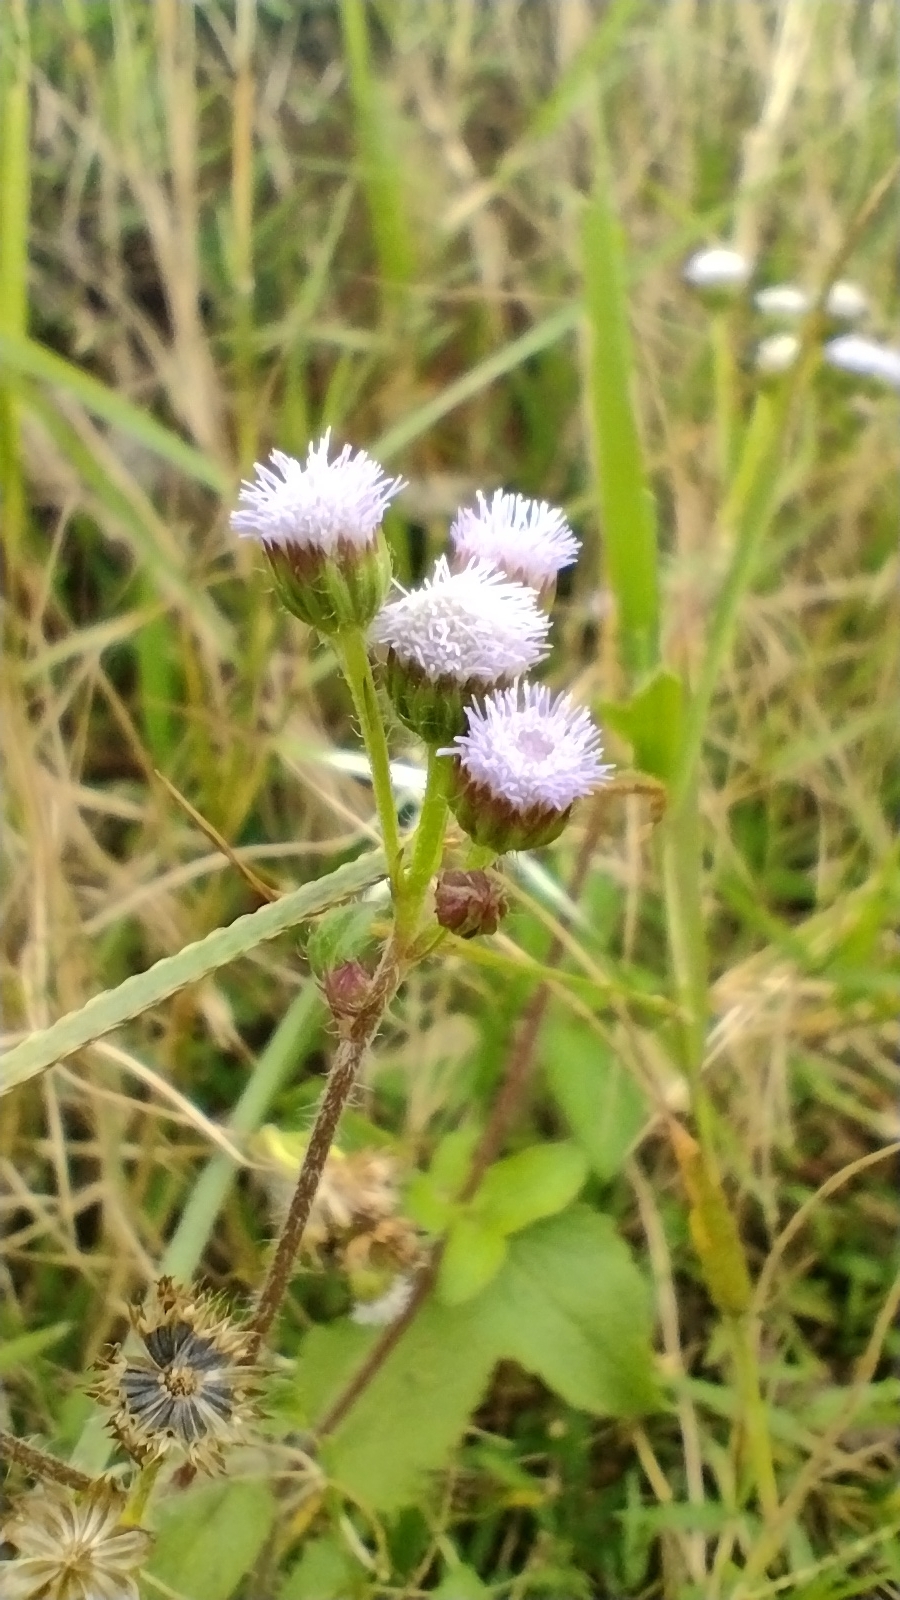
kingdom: Plantae
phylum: Tracheophyta
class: Magnoliopsida
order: Asterales
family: Asteraceae
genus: Ageratum
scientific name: Ageratum conyzoides
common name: Tropical whiteweed
